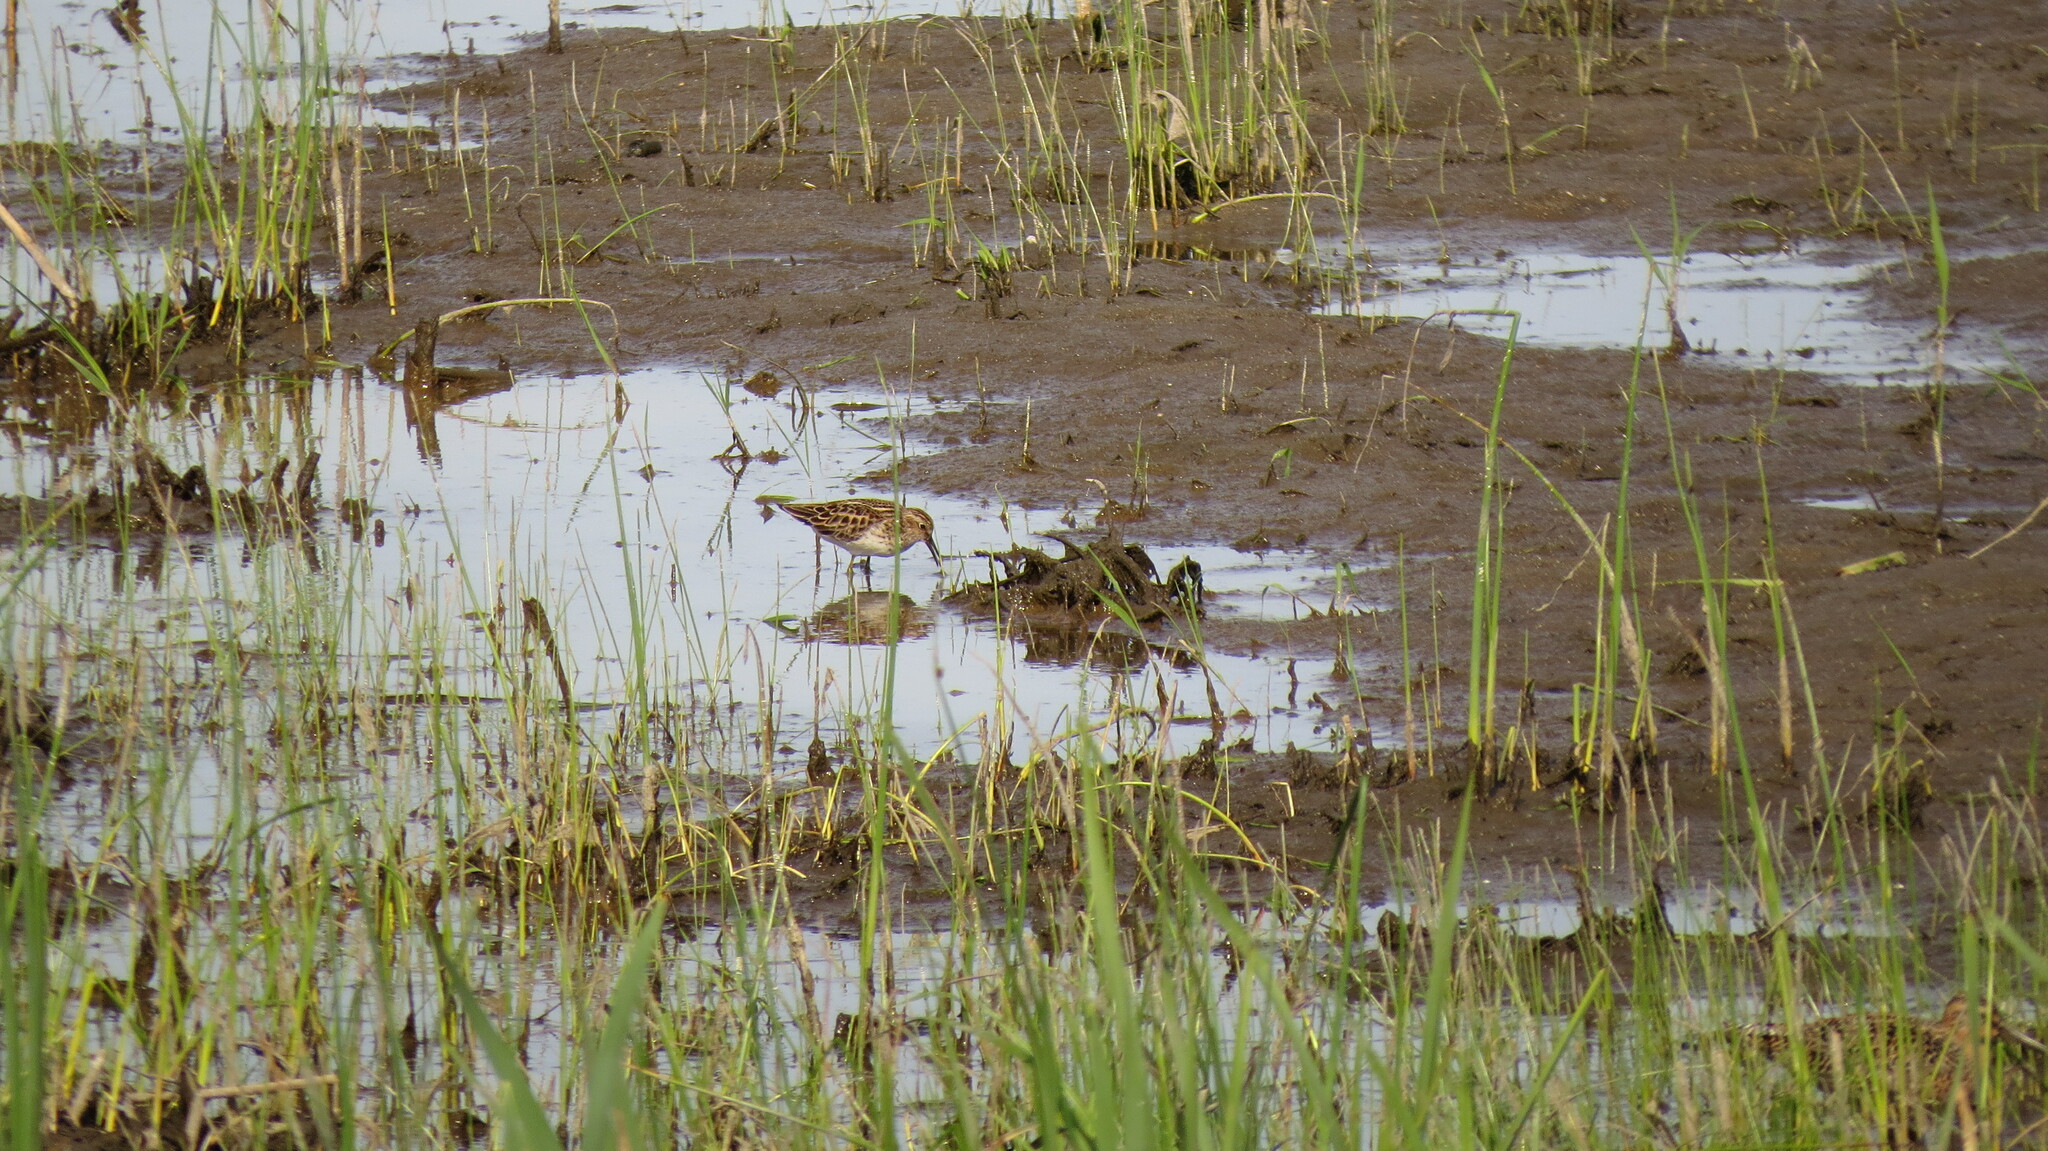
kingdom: Animalia
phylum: Chordata
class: Aves
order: Charadriiformes
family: Scolopacidae
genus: Calidris
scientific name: Calidris minutilla
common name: Least sandpiper
